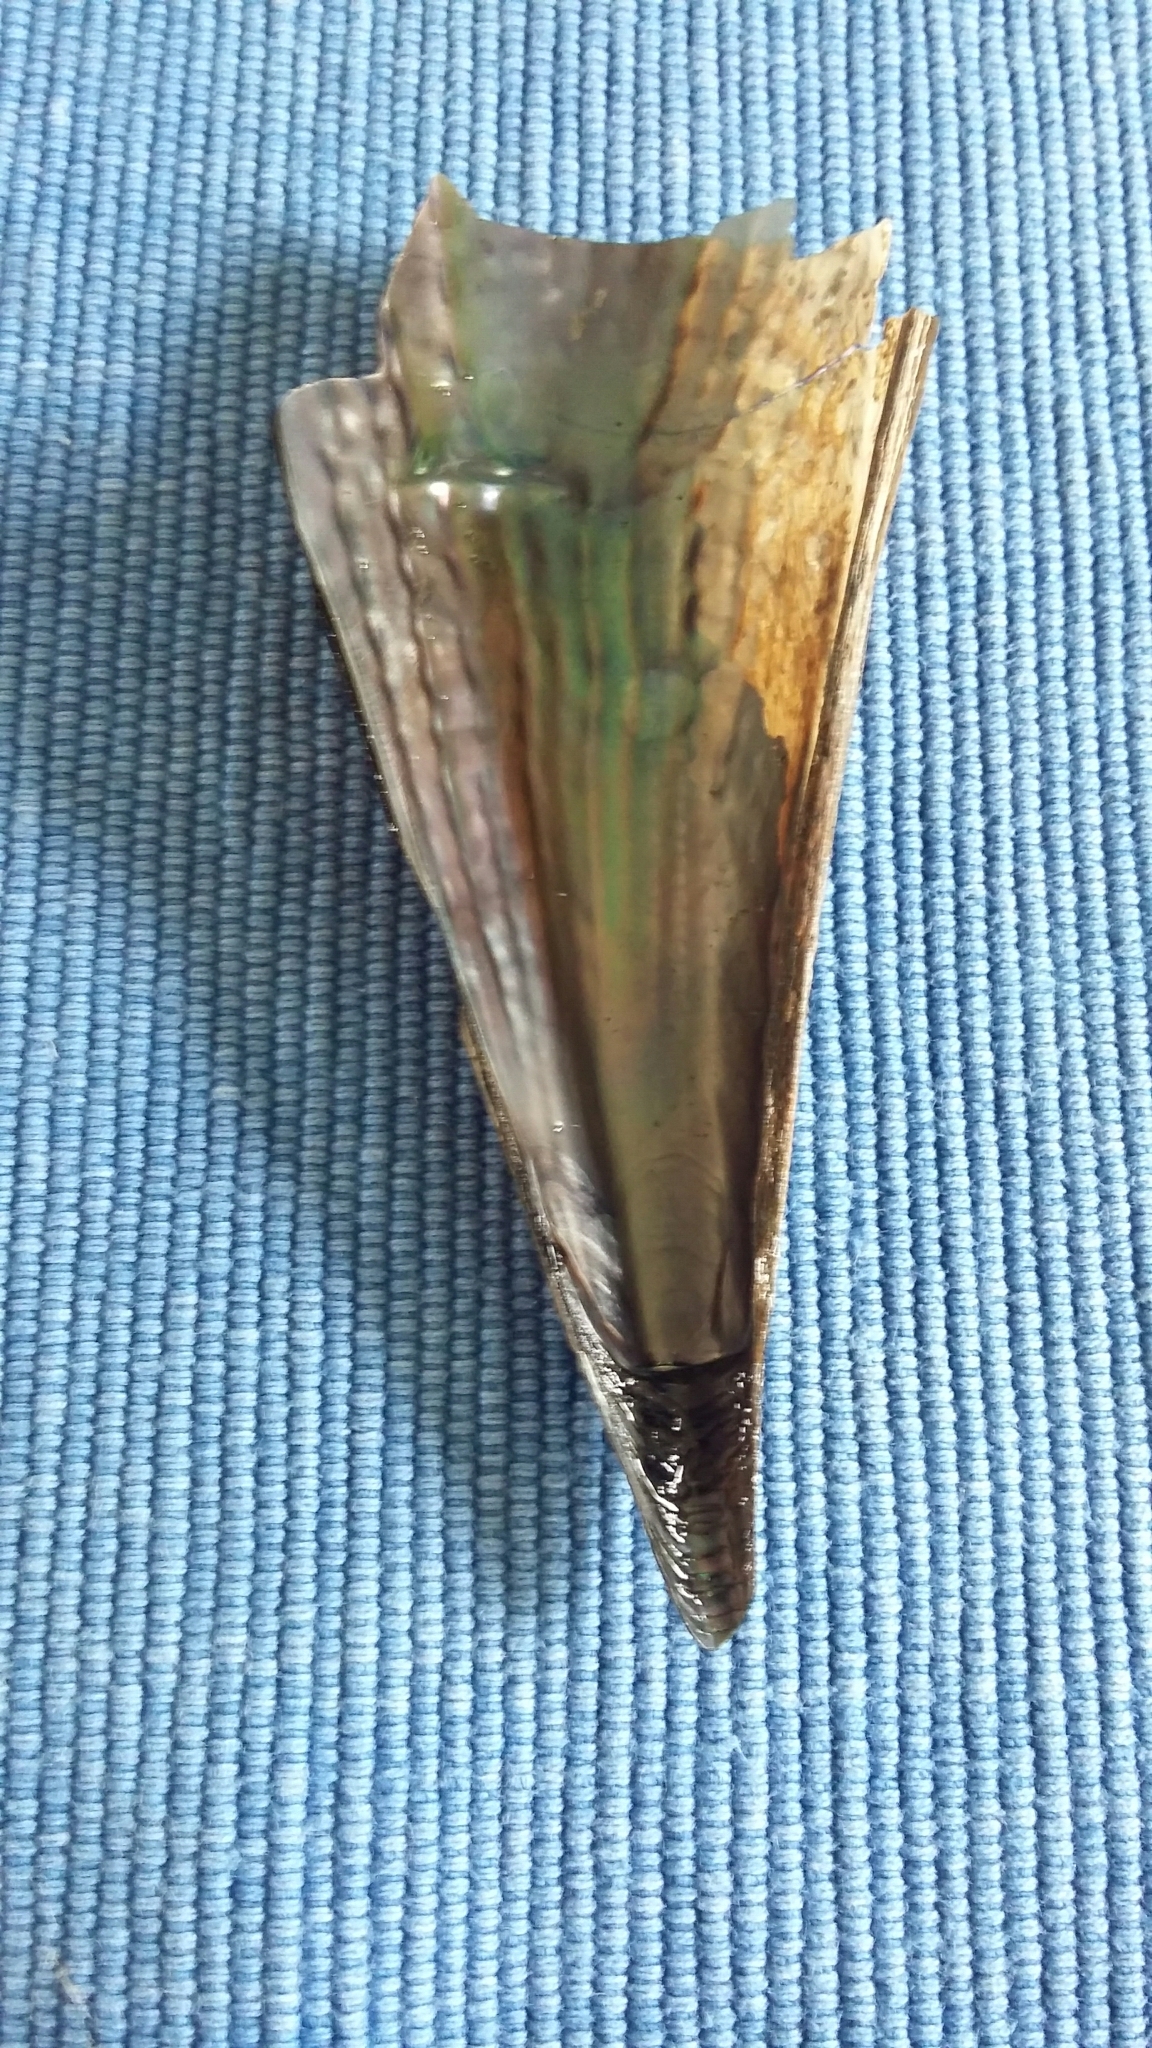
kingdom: Animalia
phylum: Mollusca
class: Bivalvia
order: Ostreida
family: Pinnidae
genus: Atrina
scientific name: Atrina zelandica
